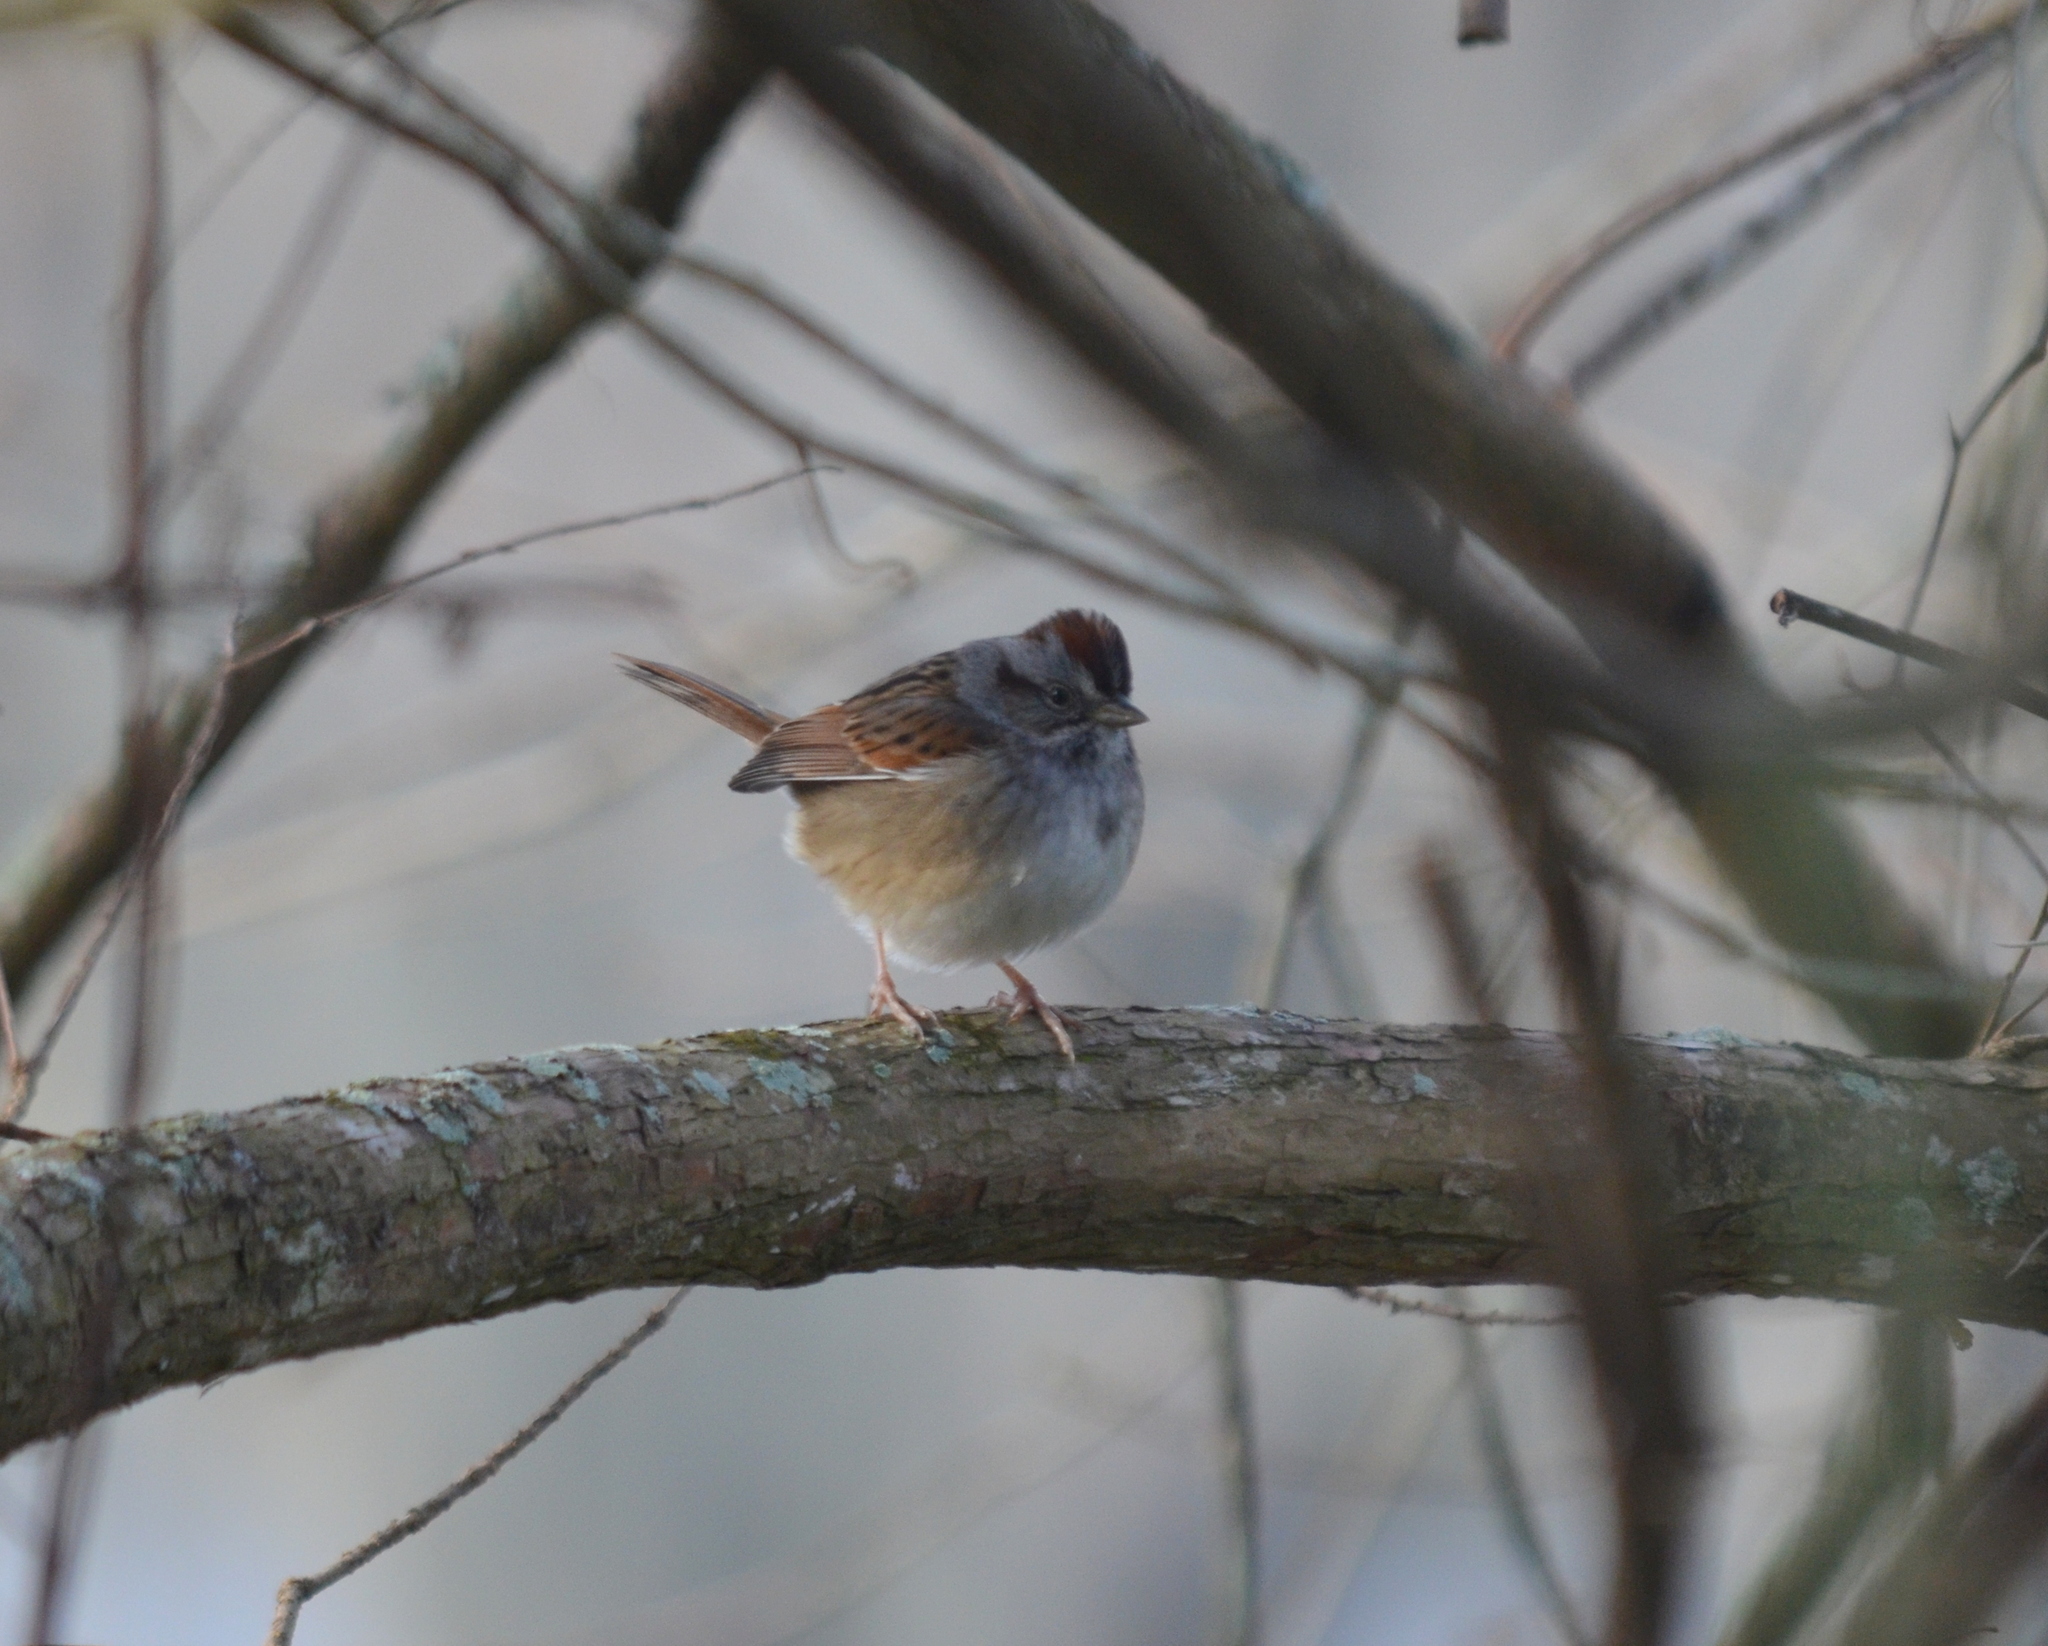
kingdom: Animalia
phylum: Chordata
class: Aves
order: Passeriformes
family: Passerellidae
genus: Melospiza
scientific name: Melospiza georgiana
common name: Swamp sparrow
